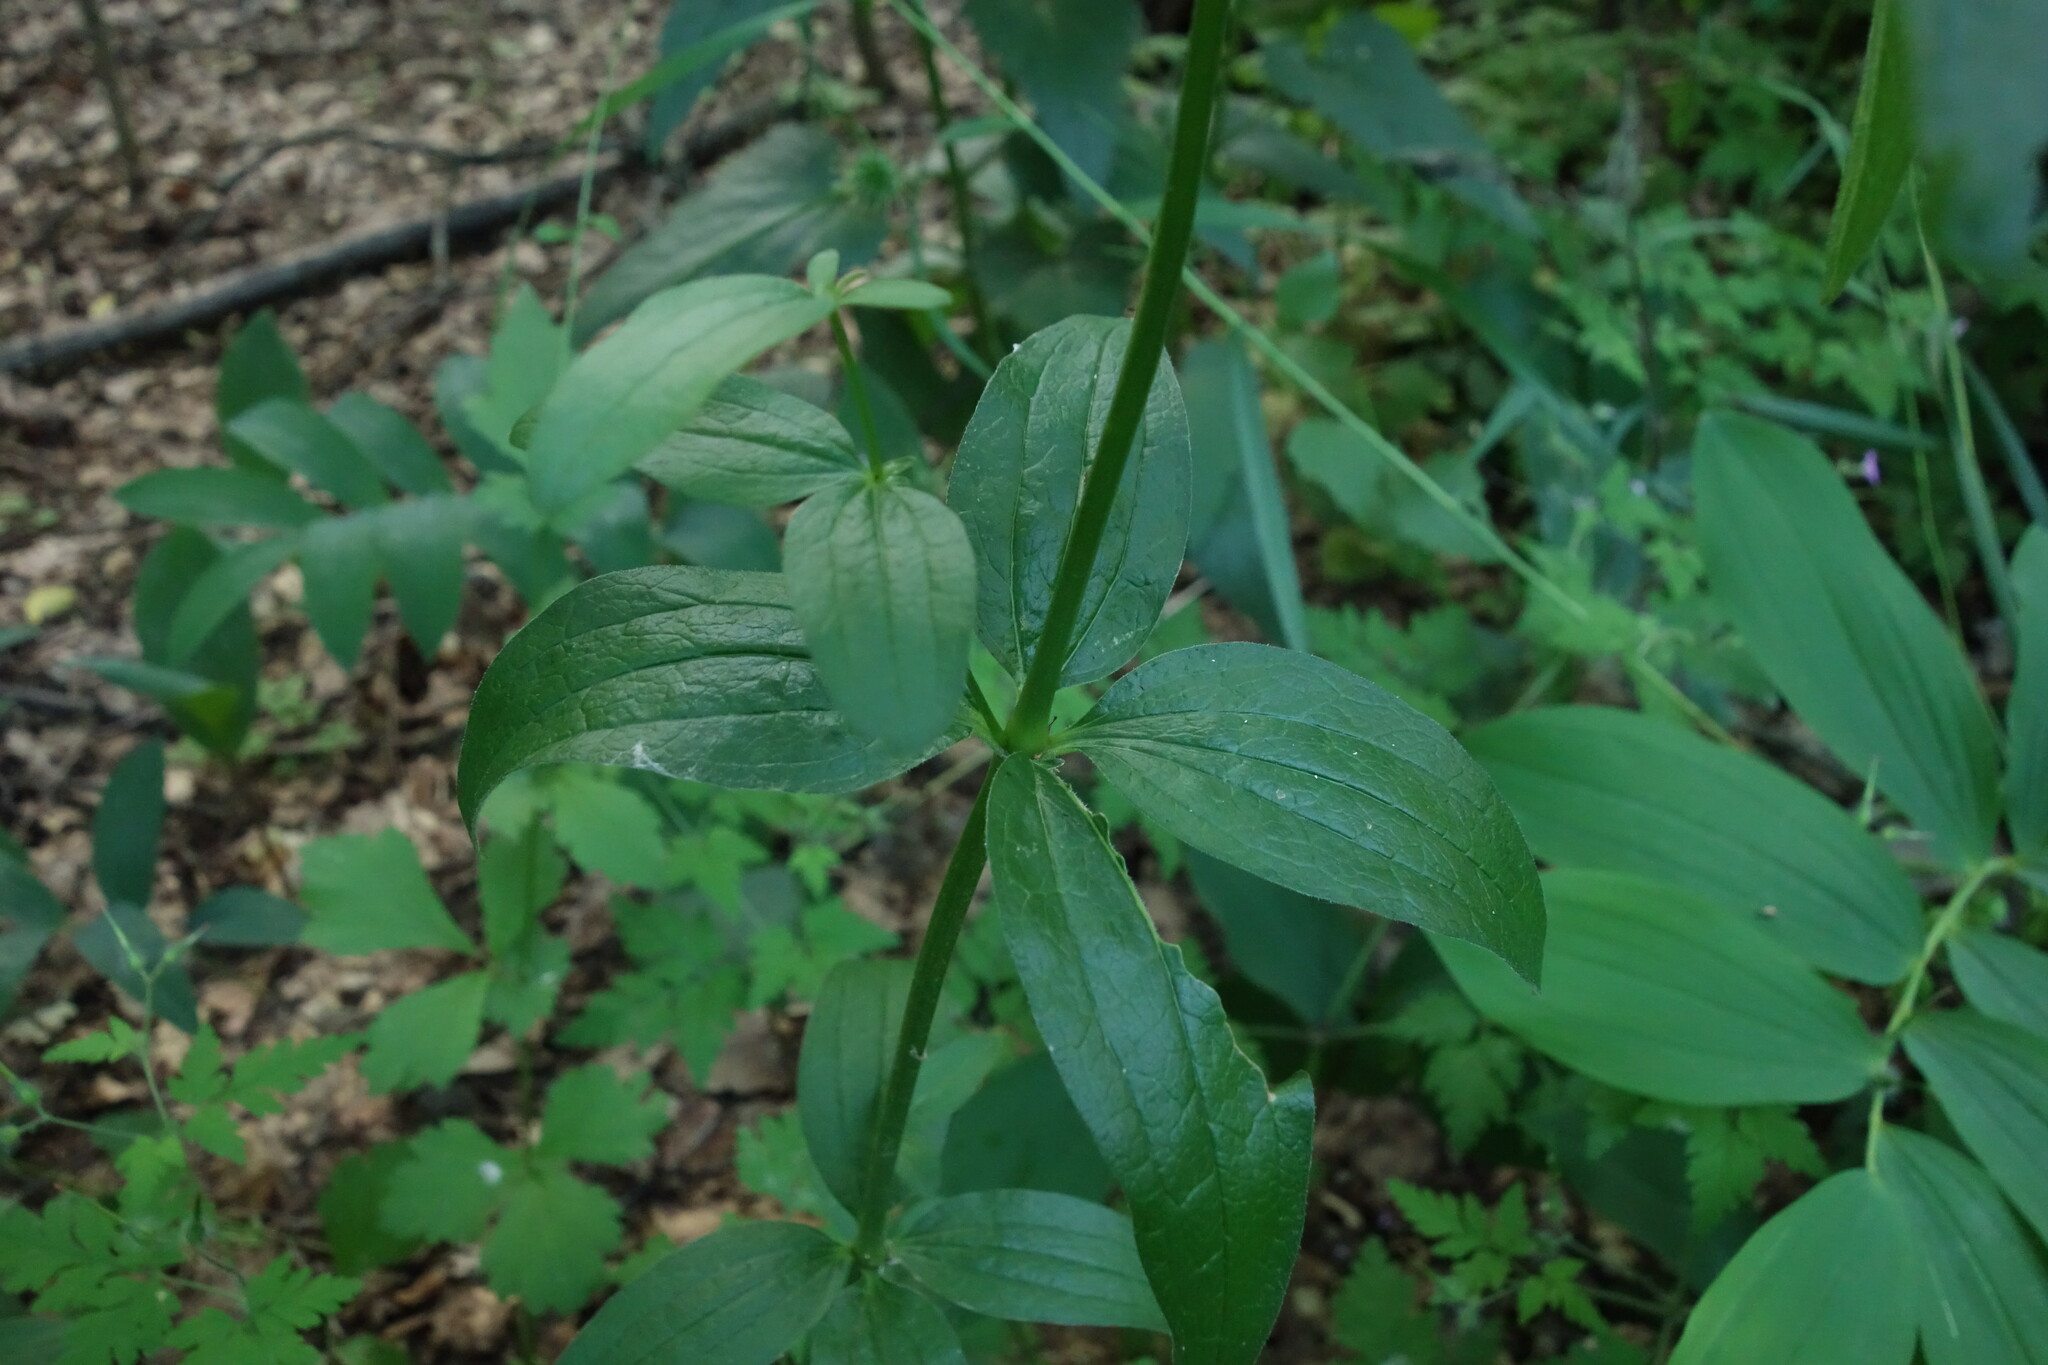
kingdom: Plantae
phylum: Tracheophyta
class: Magnoliopsida
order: Gentianales
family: Rubiaceae
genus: Galium
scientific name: Galium rubioides
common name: European bedstraw
